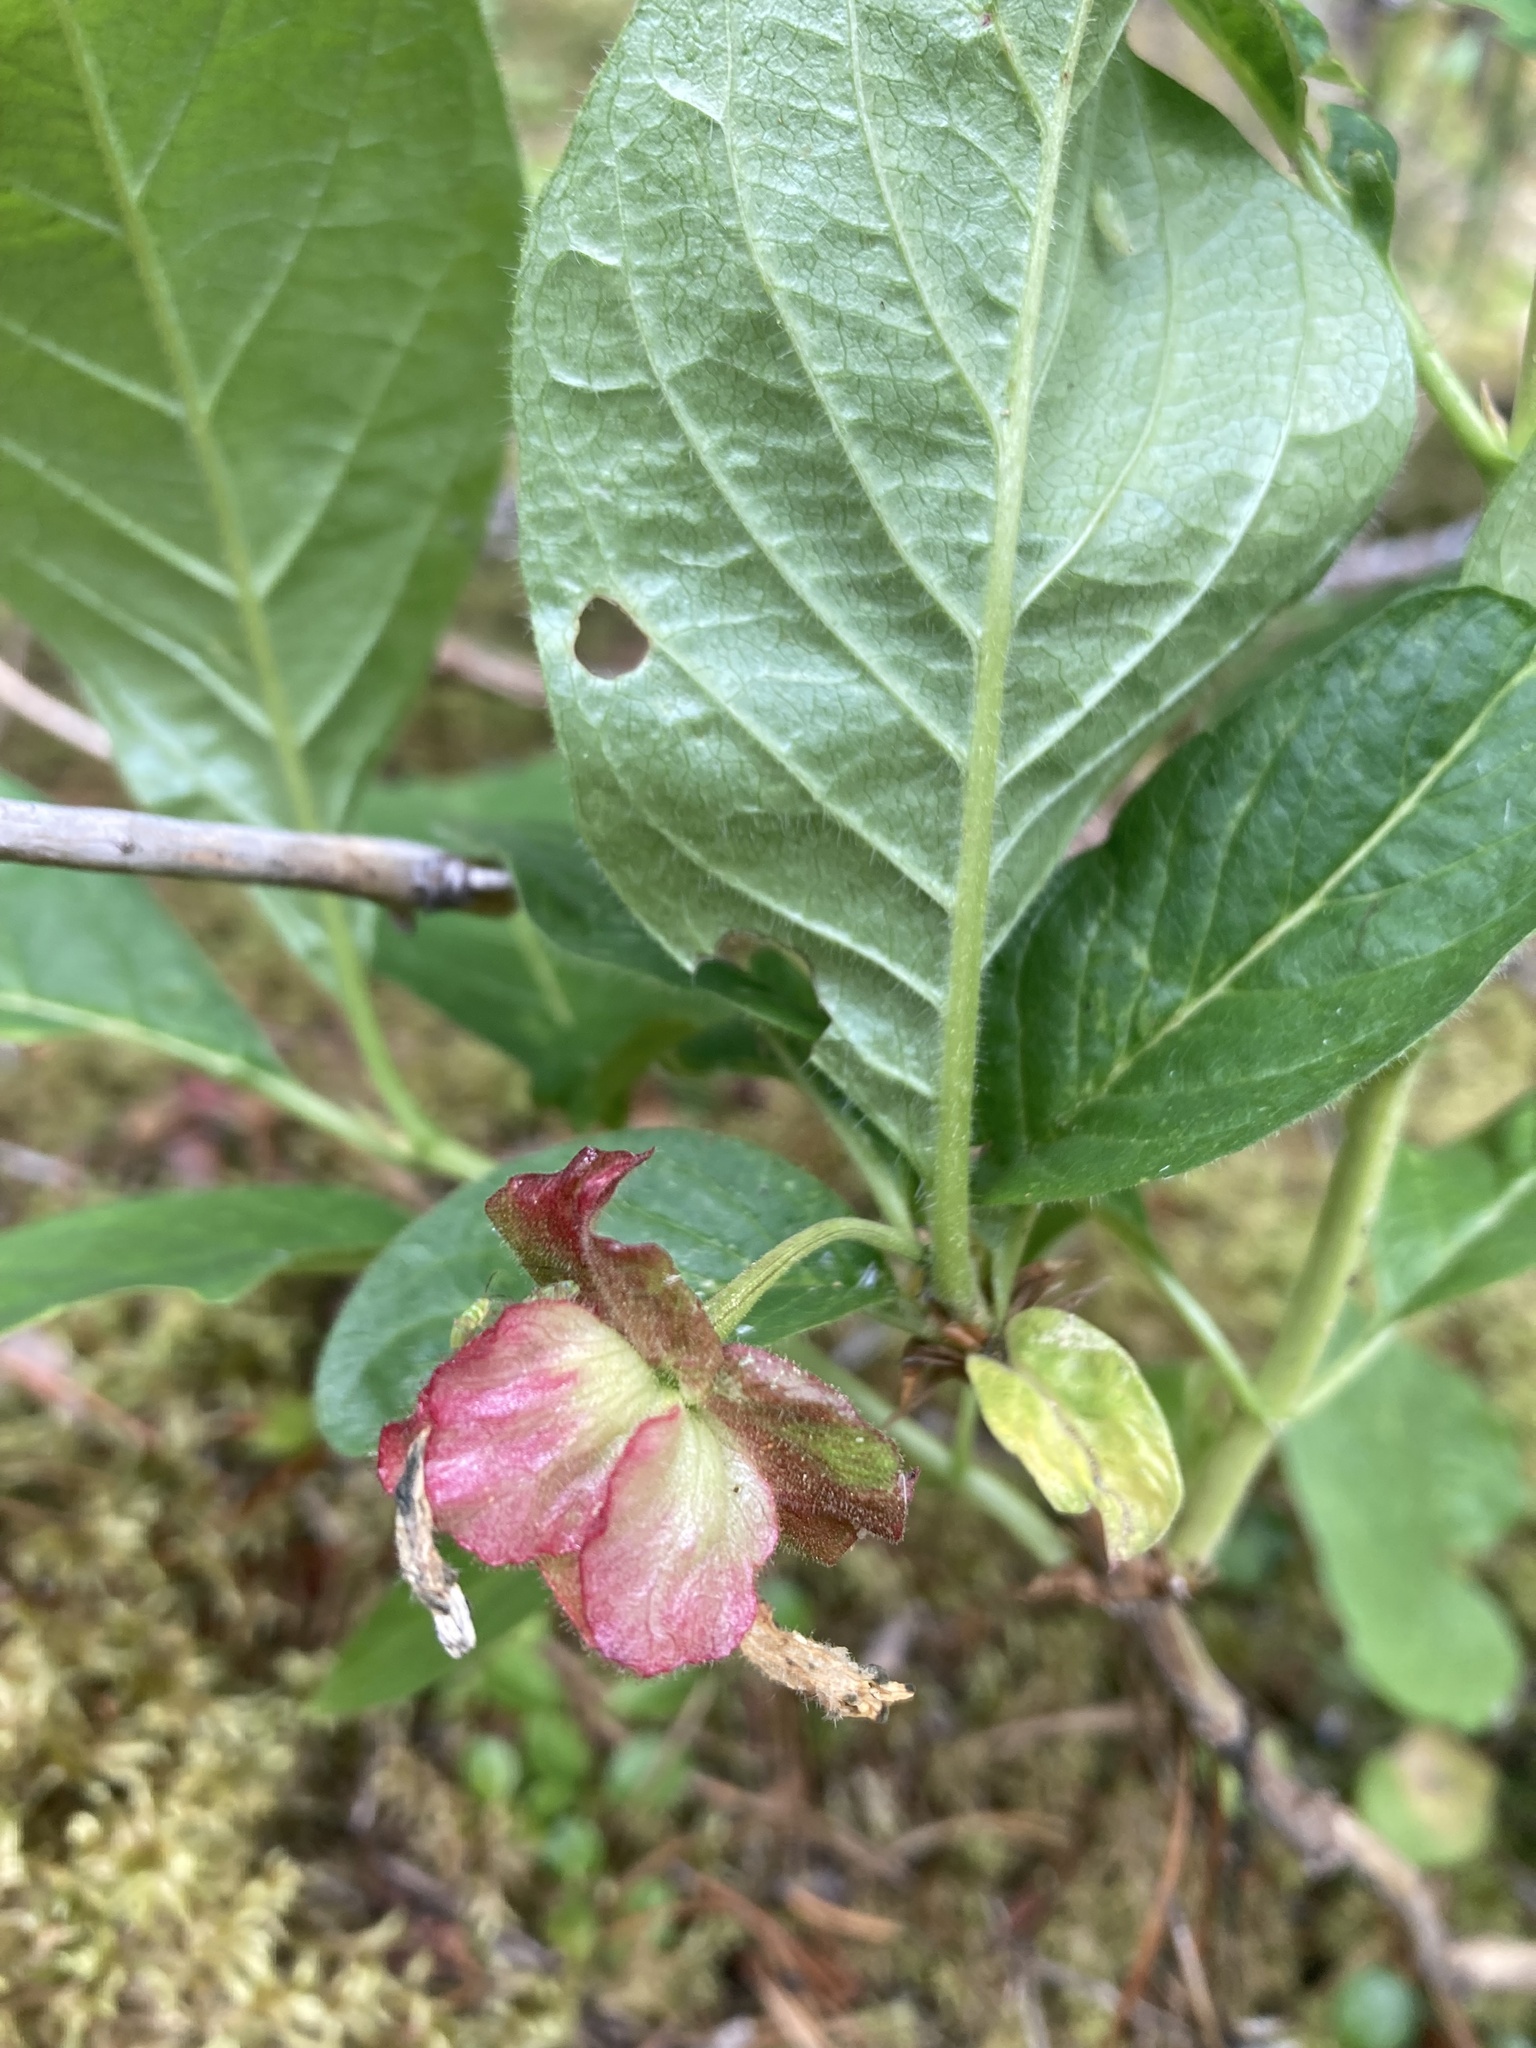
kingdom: Plantae
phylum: Tracheophyta
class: Magnoliopsida
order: Dipsacales
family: Caprifoliaceae
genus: Lonicera
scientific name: Lonicera involucrata
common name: Californian honeysuckle
